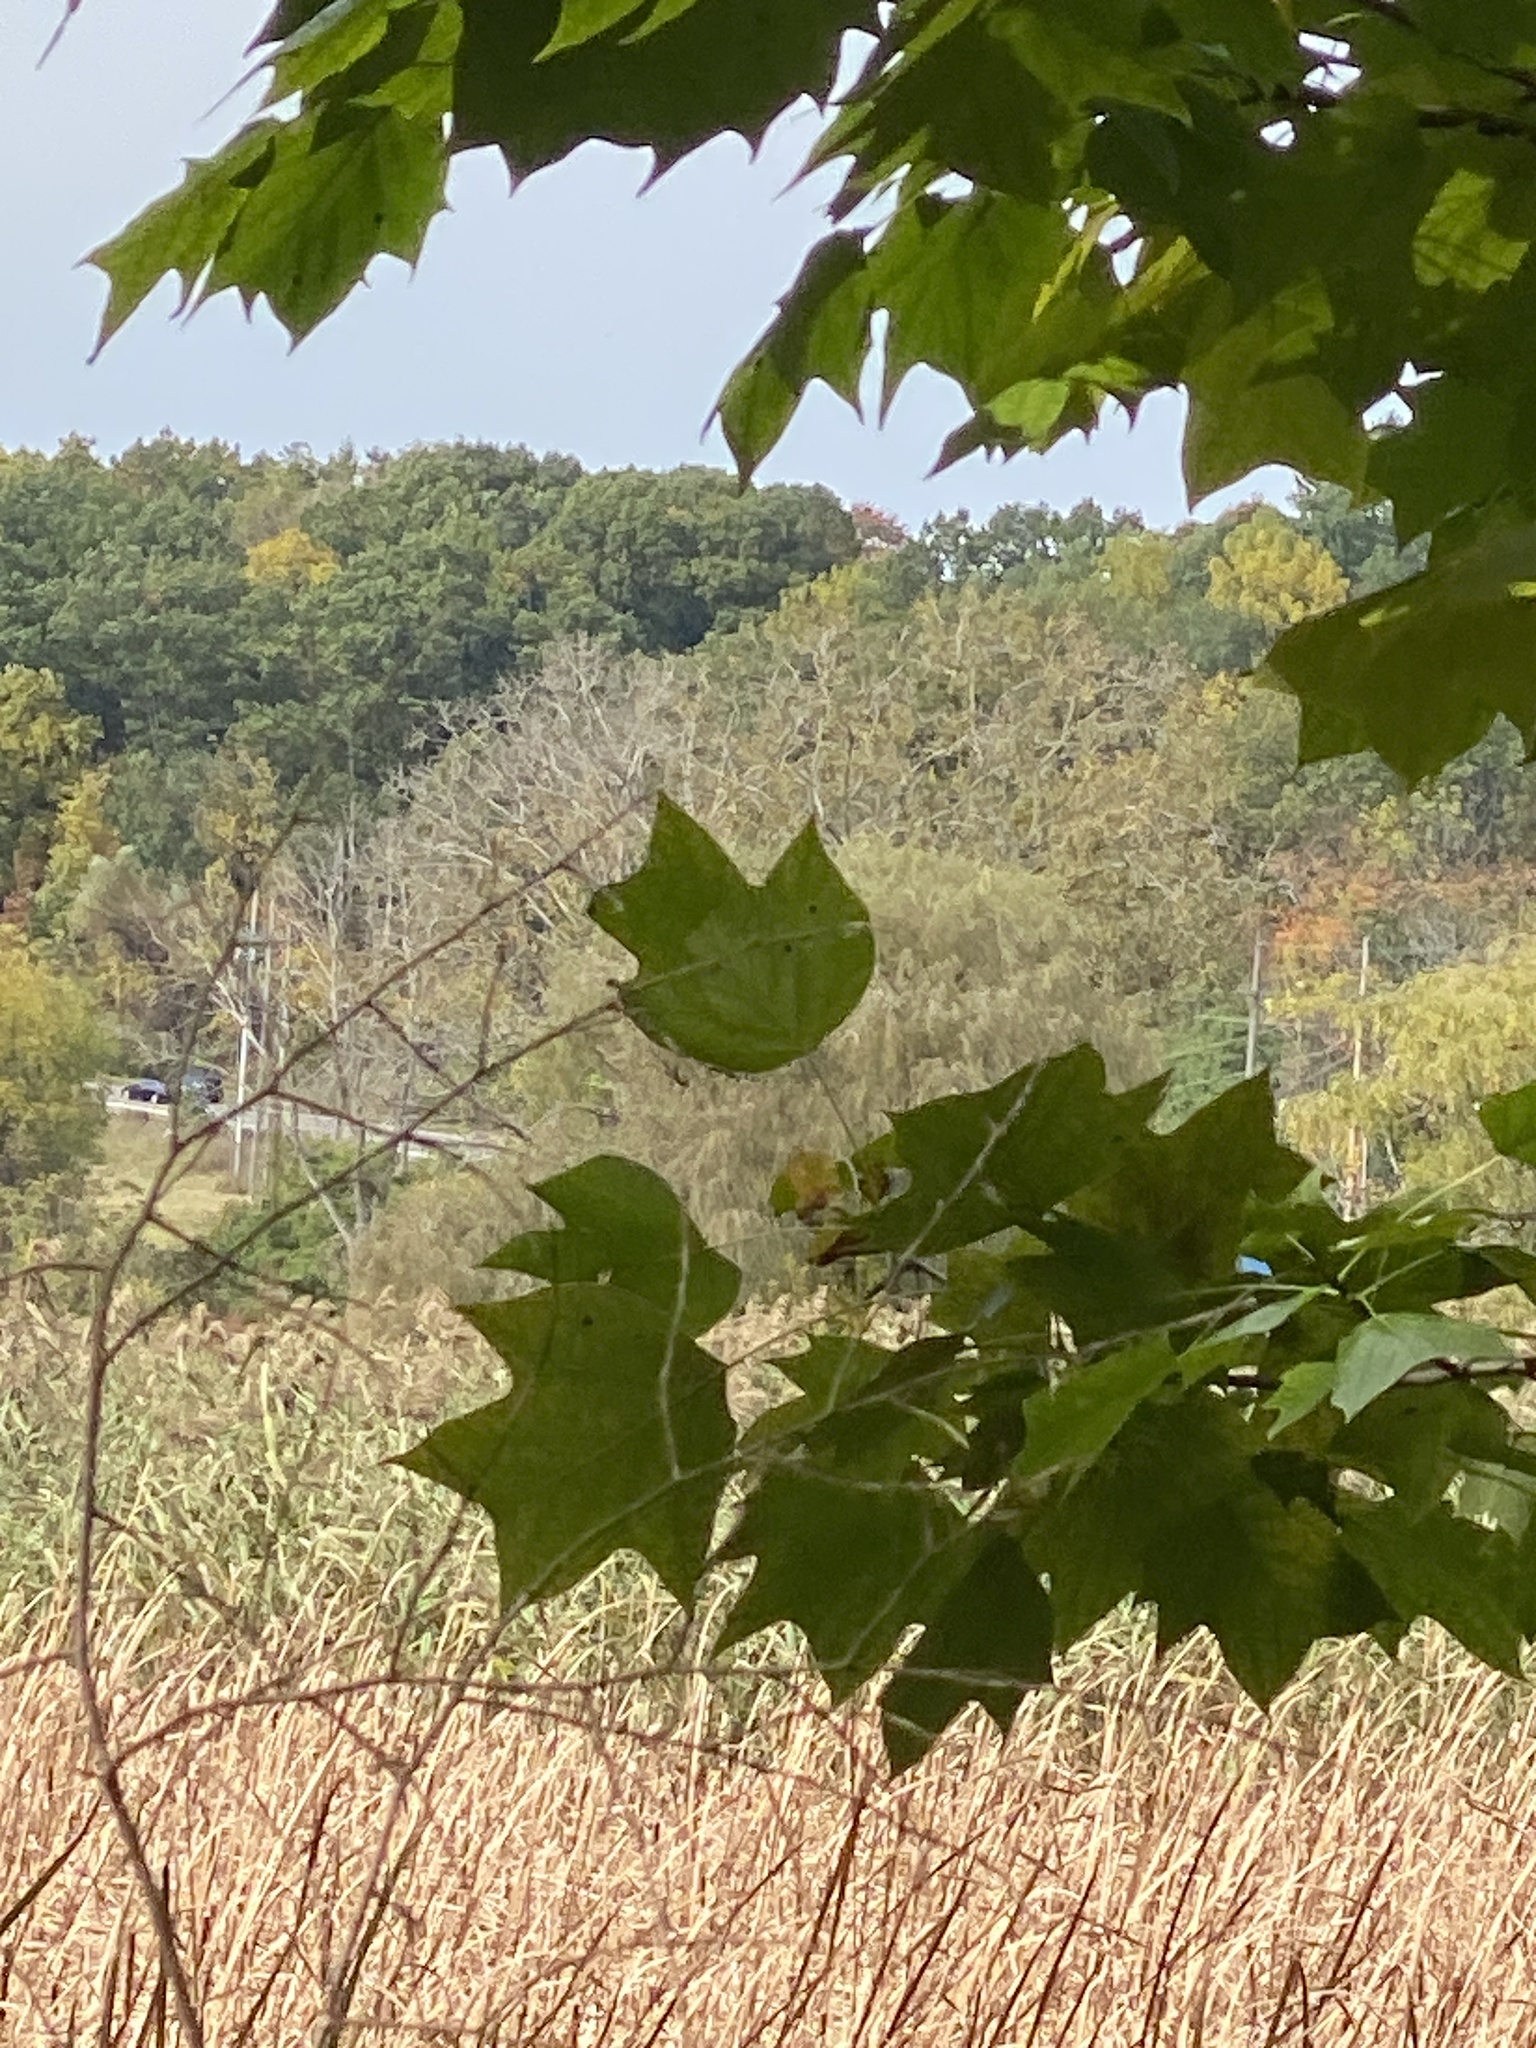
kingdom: Plantae
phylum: Tracheophyta
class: Magnoliopsida
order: Magnoliales
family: Magnoliaceae
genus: Liriodendron
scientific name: Liriodendron tulipifera
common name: Tulip tree
